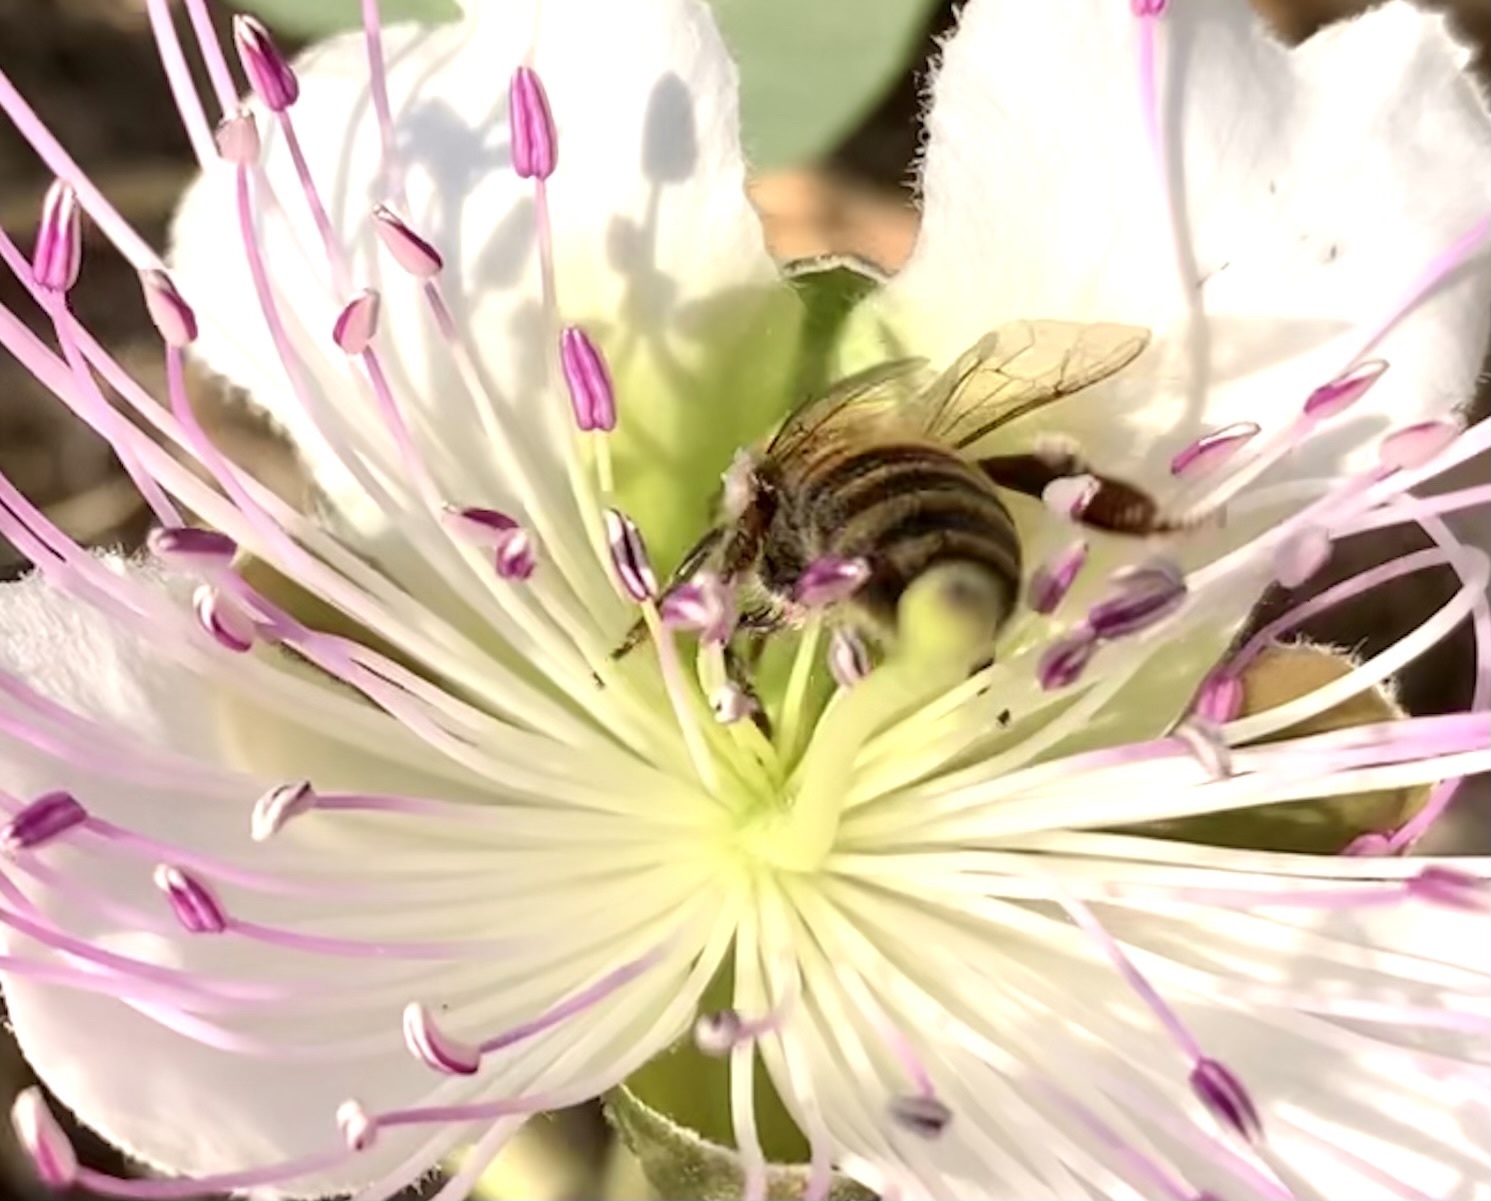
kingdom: Animalia
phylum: Arthropoda
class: Insecta
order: Hymenoptera
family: Apidae
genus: Apis
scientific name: Apis mellifera
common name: Honey bee
